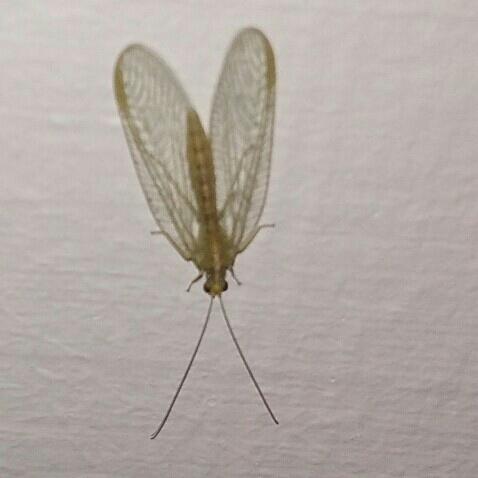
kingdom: Animalia
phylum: Arthropoda
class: Insecta
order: Neuroptera
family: Chrysopidae
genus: Chrysoperla
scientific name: Chrysoperla
